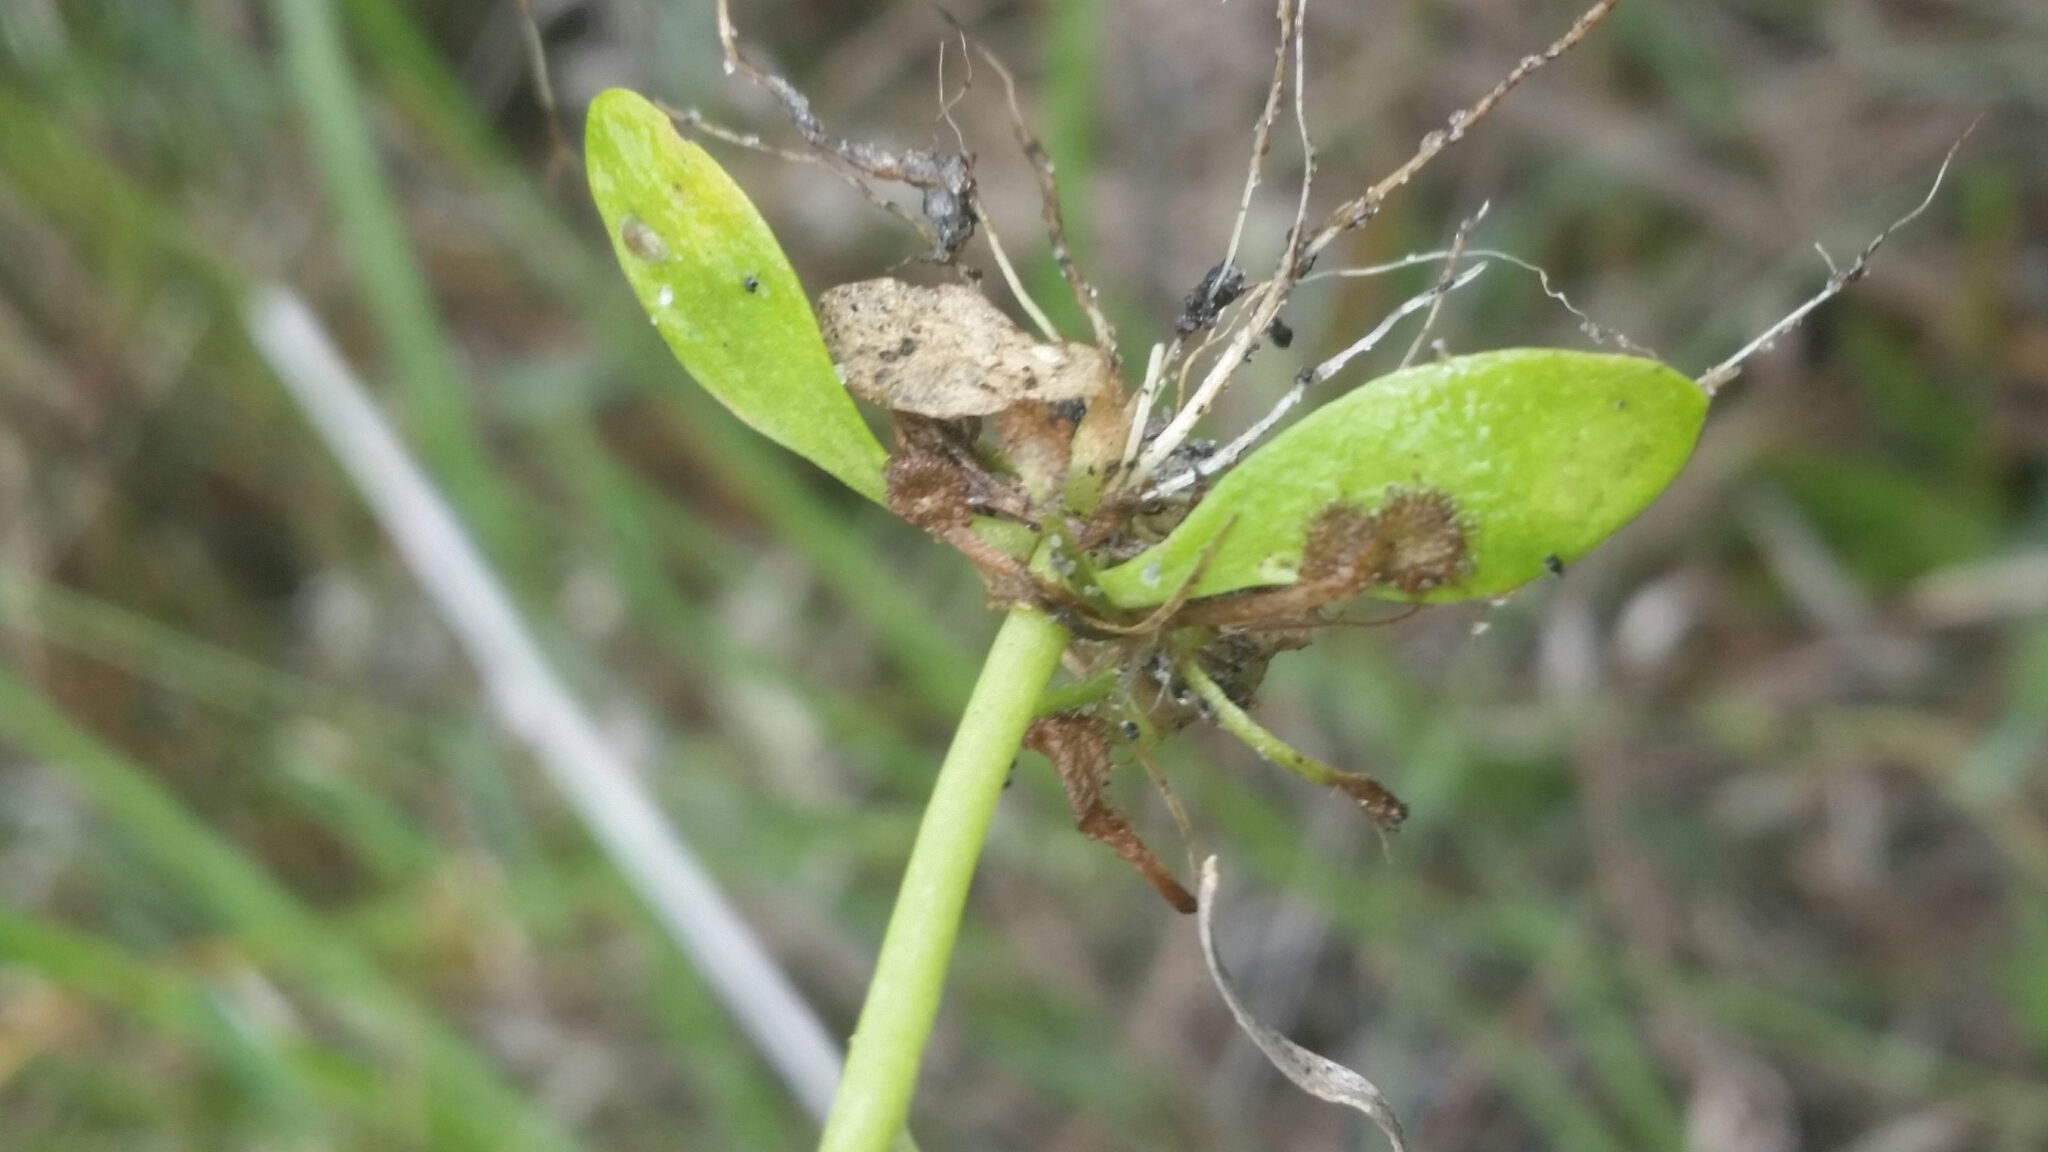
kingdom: Plantae
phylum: Tracheophyta
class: Magnoliopsida
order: Fabales
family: Polygalaceae
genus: Polygala
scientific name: Polygala ramosa
